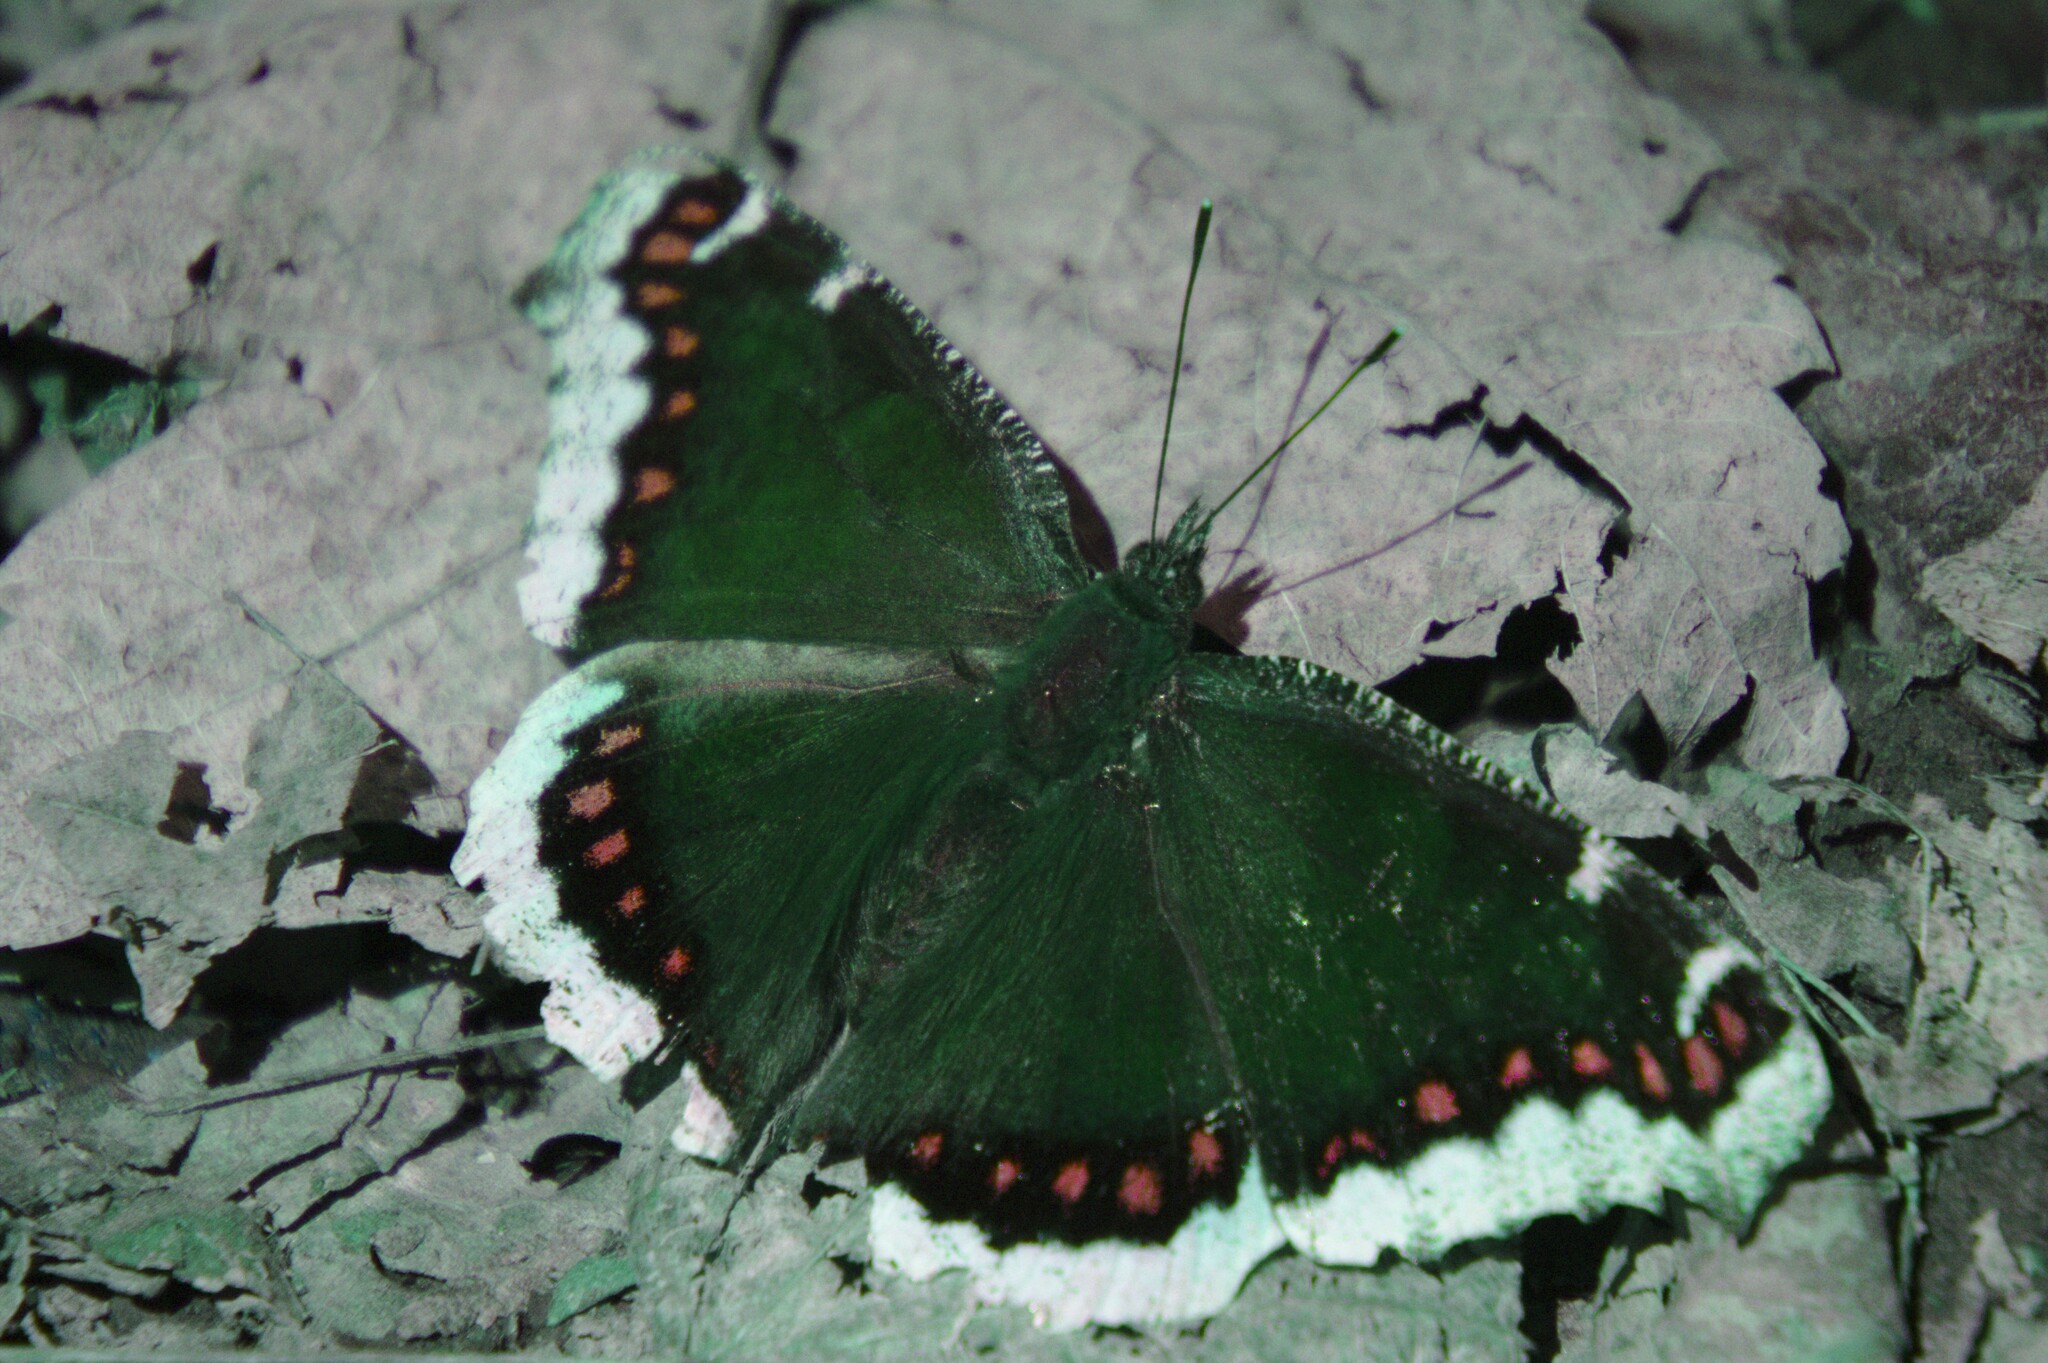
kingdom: Animalia
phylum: Arthropoda
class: Insecta
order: Lepidoptera
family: Nymphalidae
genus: Nymphalis
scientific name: Nymphalis antiopa
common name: Camberwell beauty
